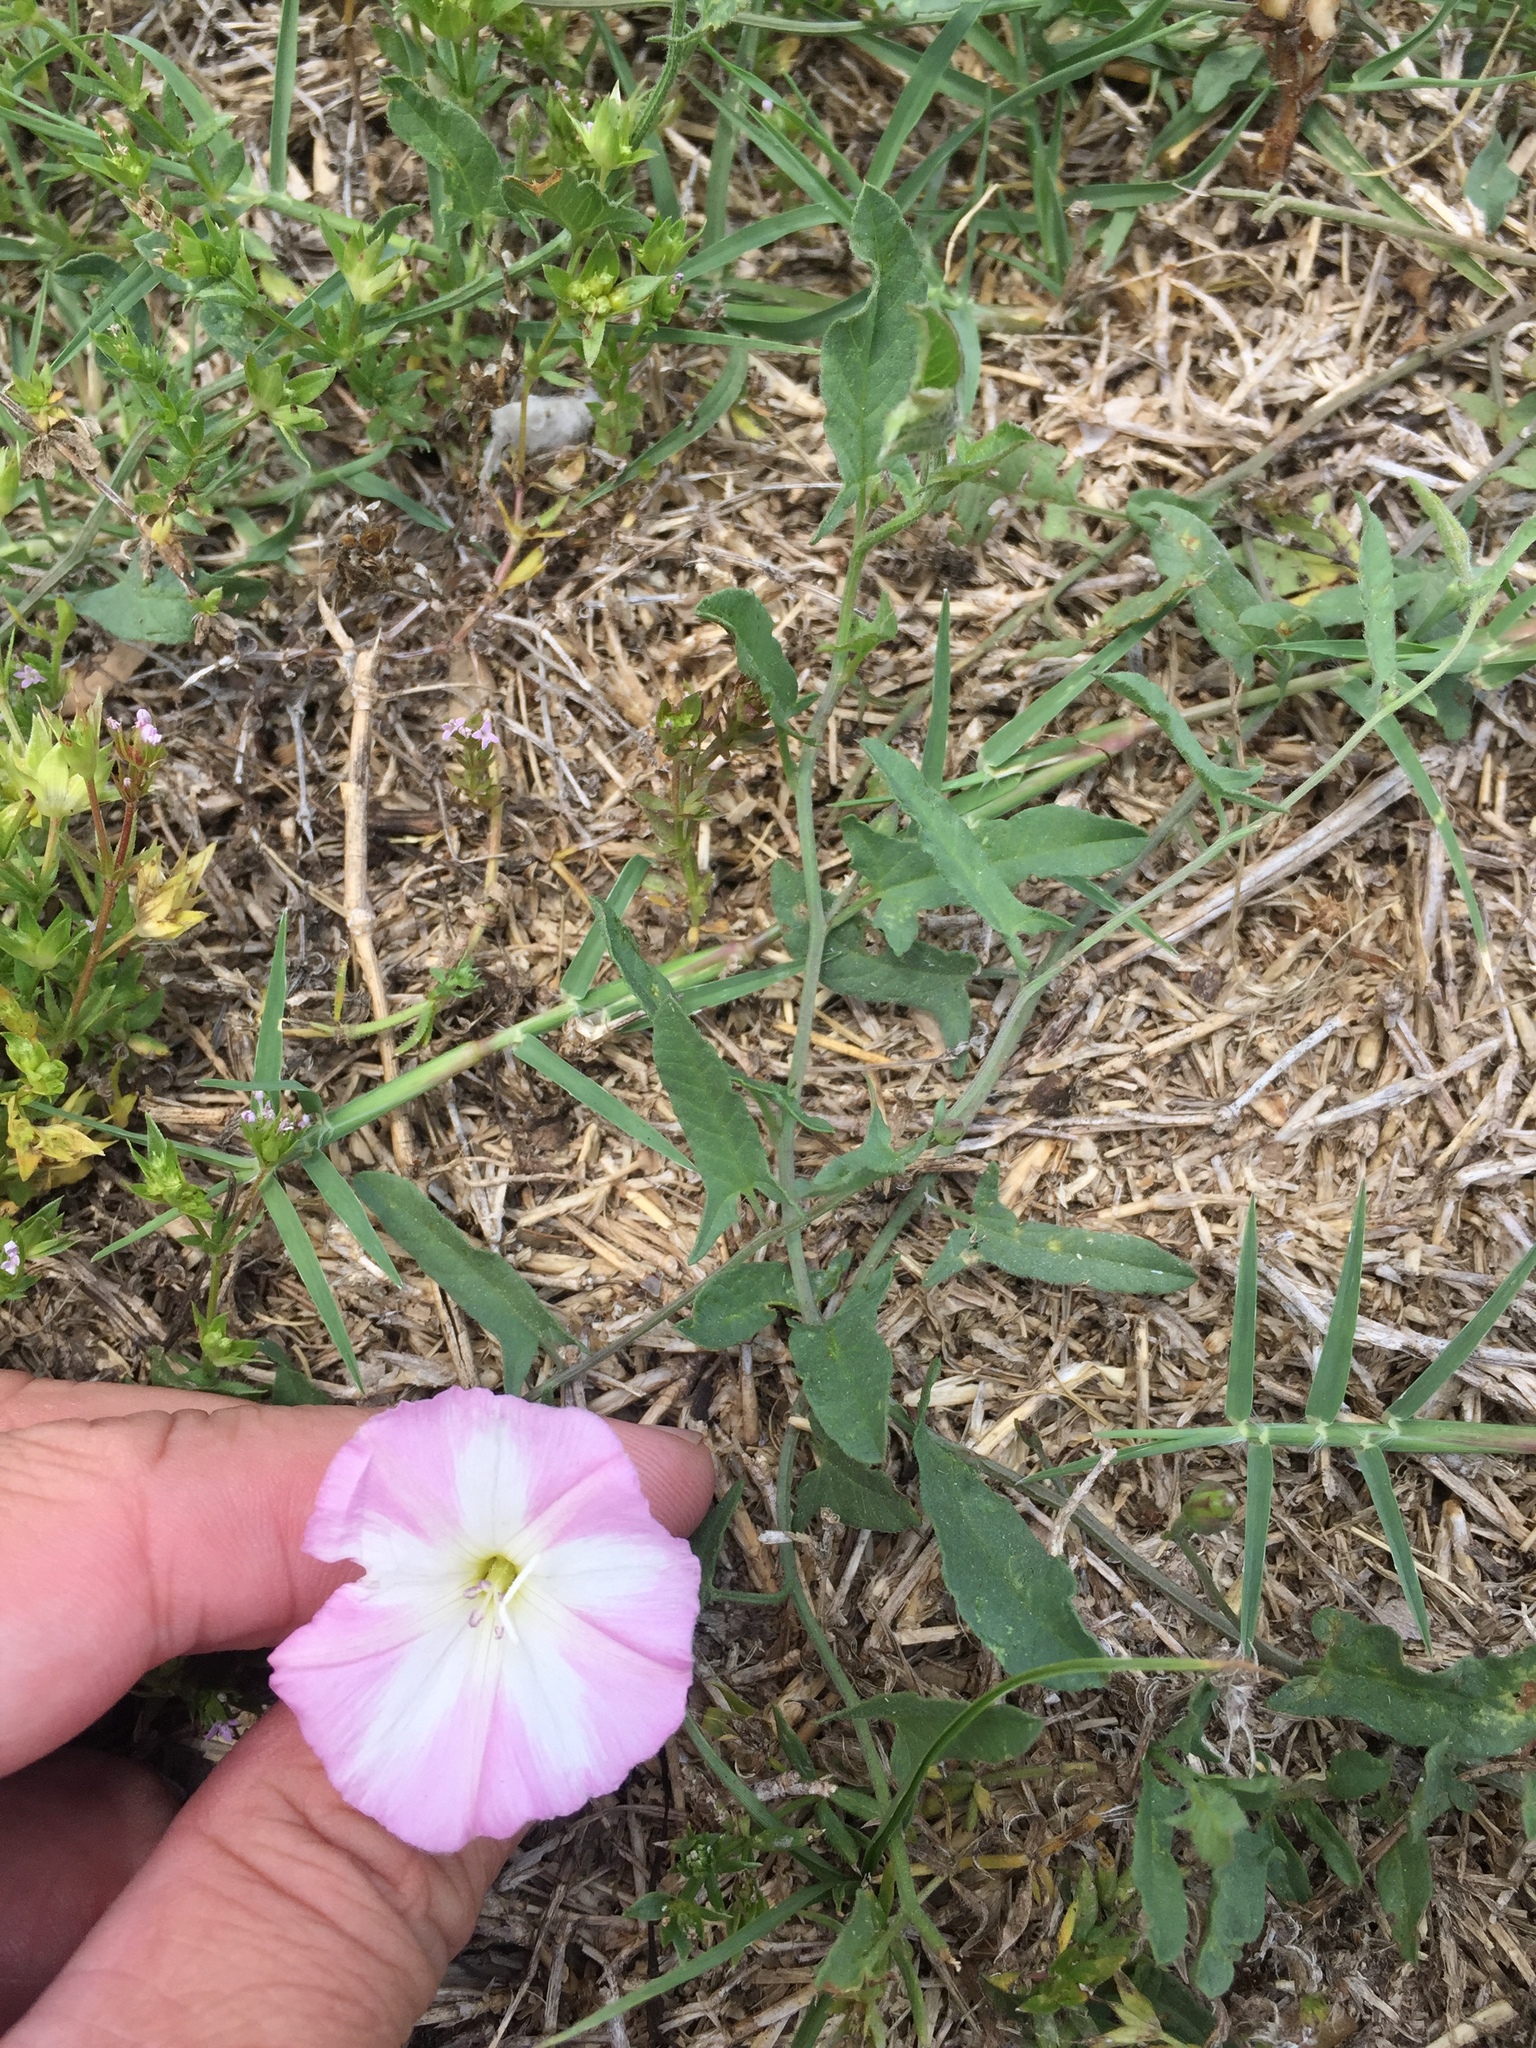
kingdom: Plantae
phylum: Tracheophyta
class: Magnoliopsida
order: Solanales
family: Convolvulaceae
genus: Convolvulus
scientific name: Convolvulus arvensis
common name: Field bindweed
